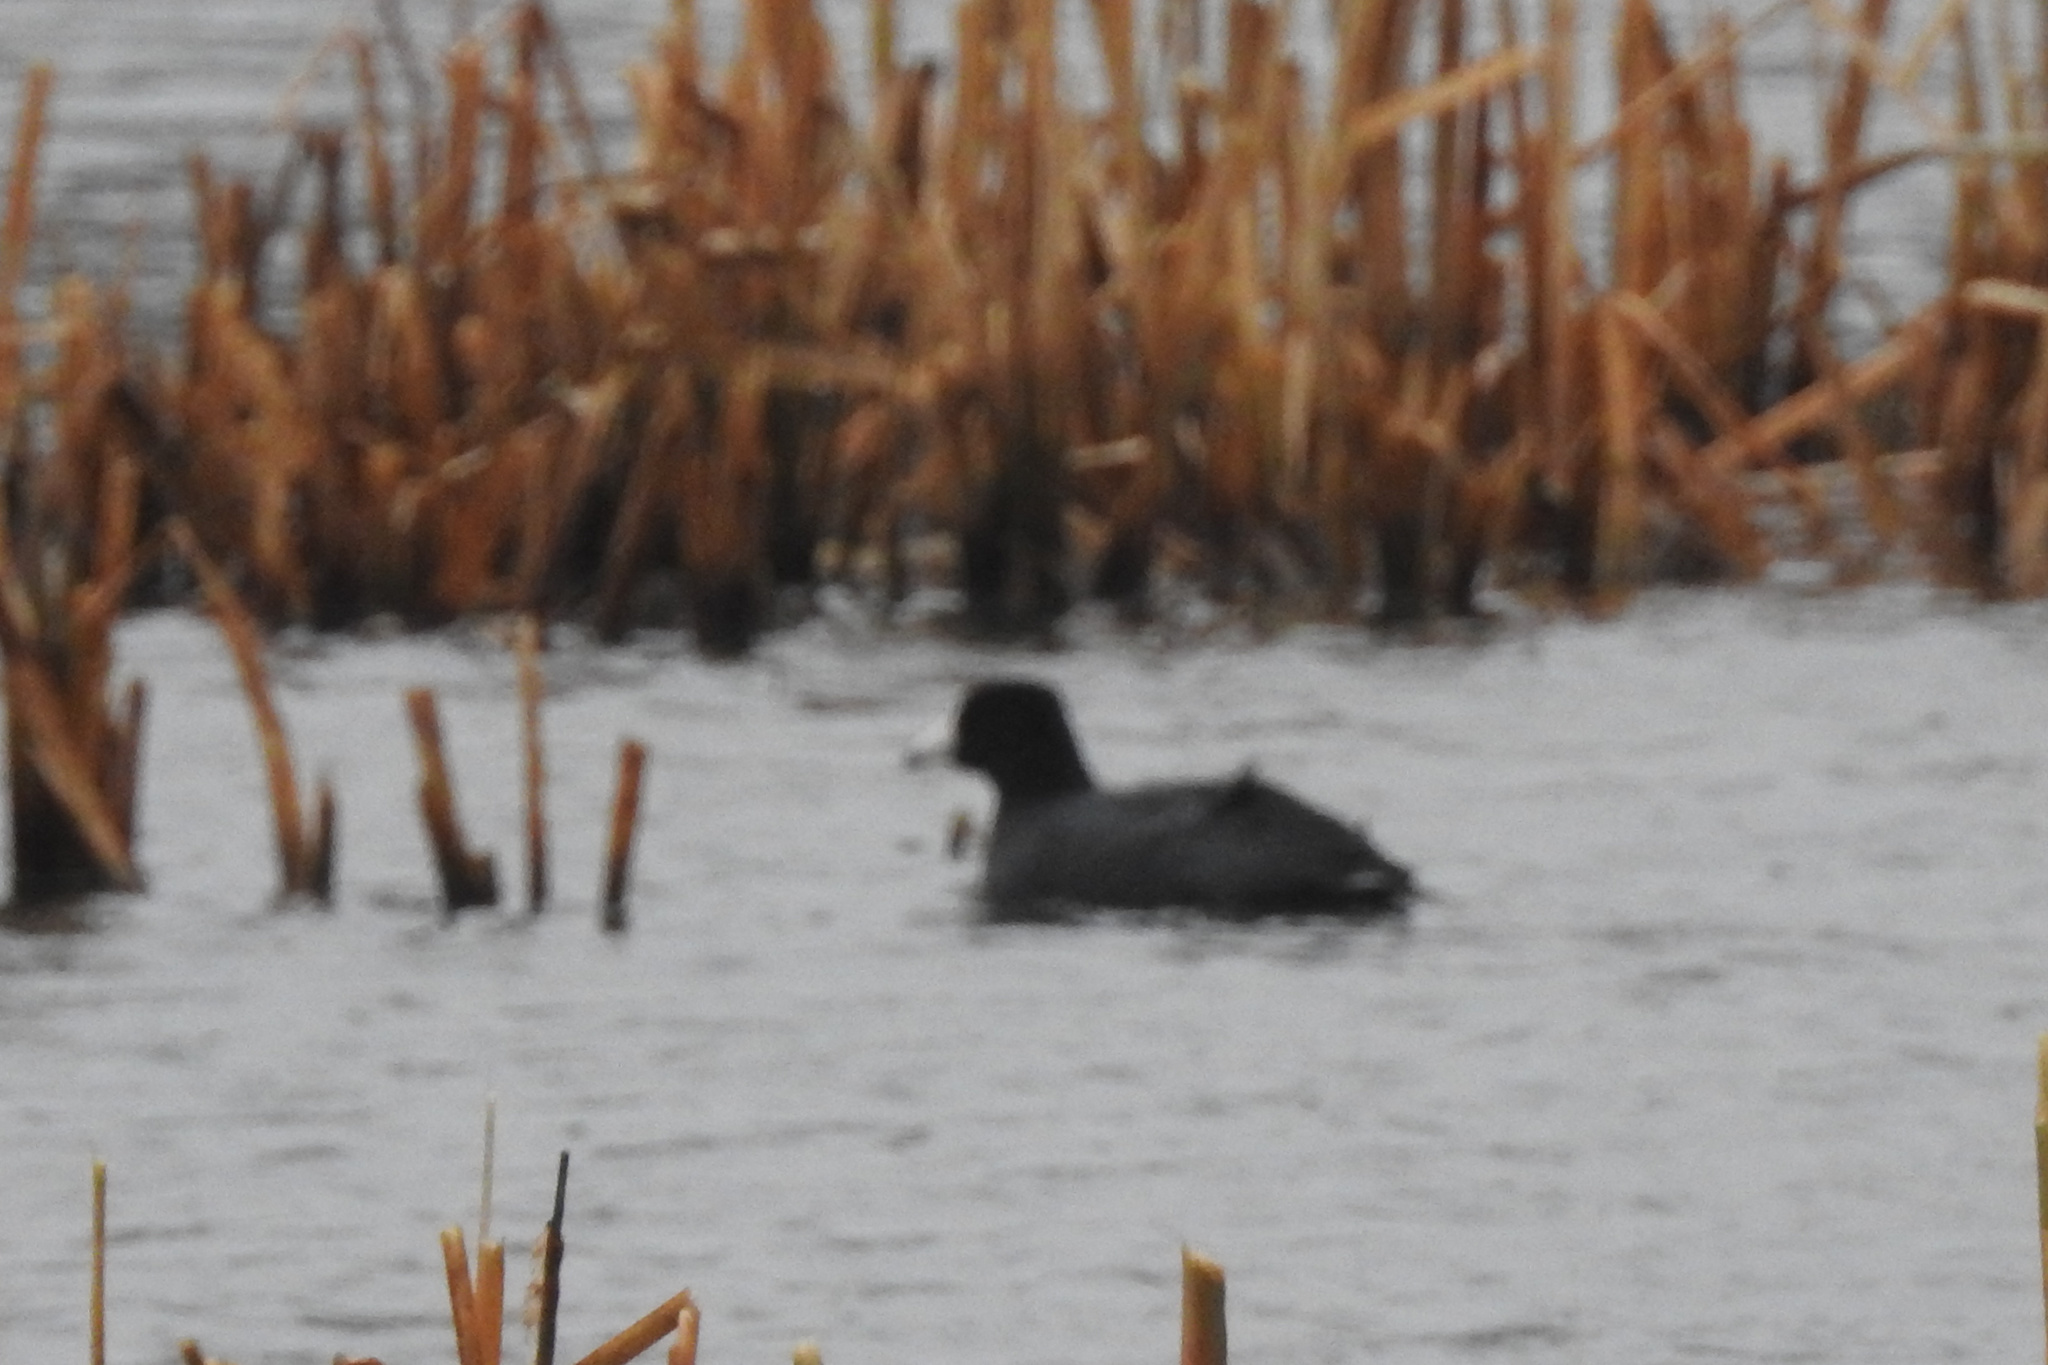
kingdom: Animalia
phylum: Chordata
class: Aves
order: Gruiformes
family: Rallidae
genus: Fulica
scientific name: Fulica americana
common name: American coot
